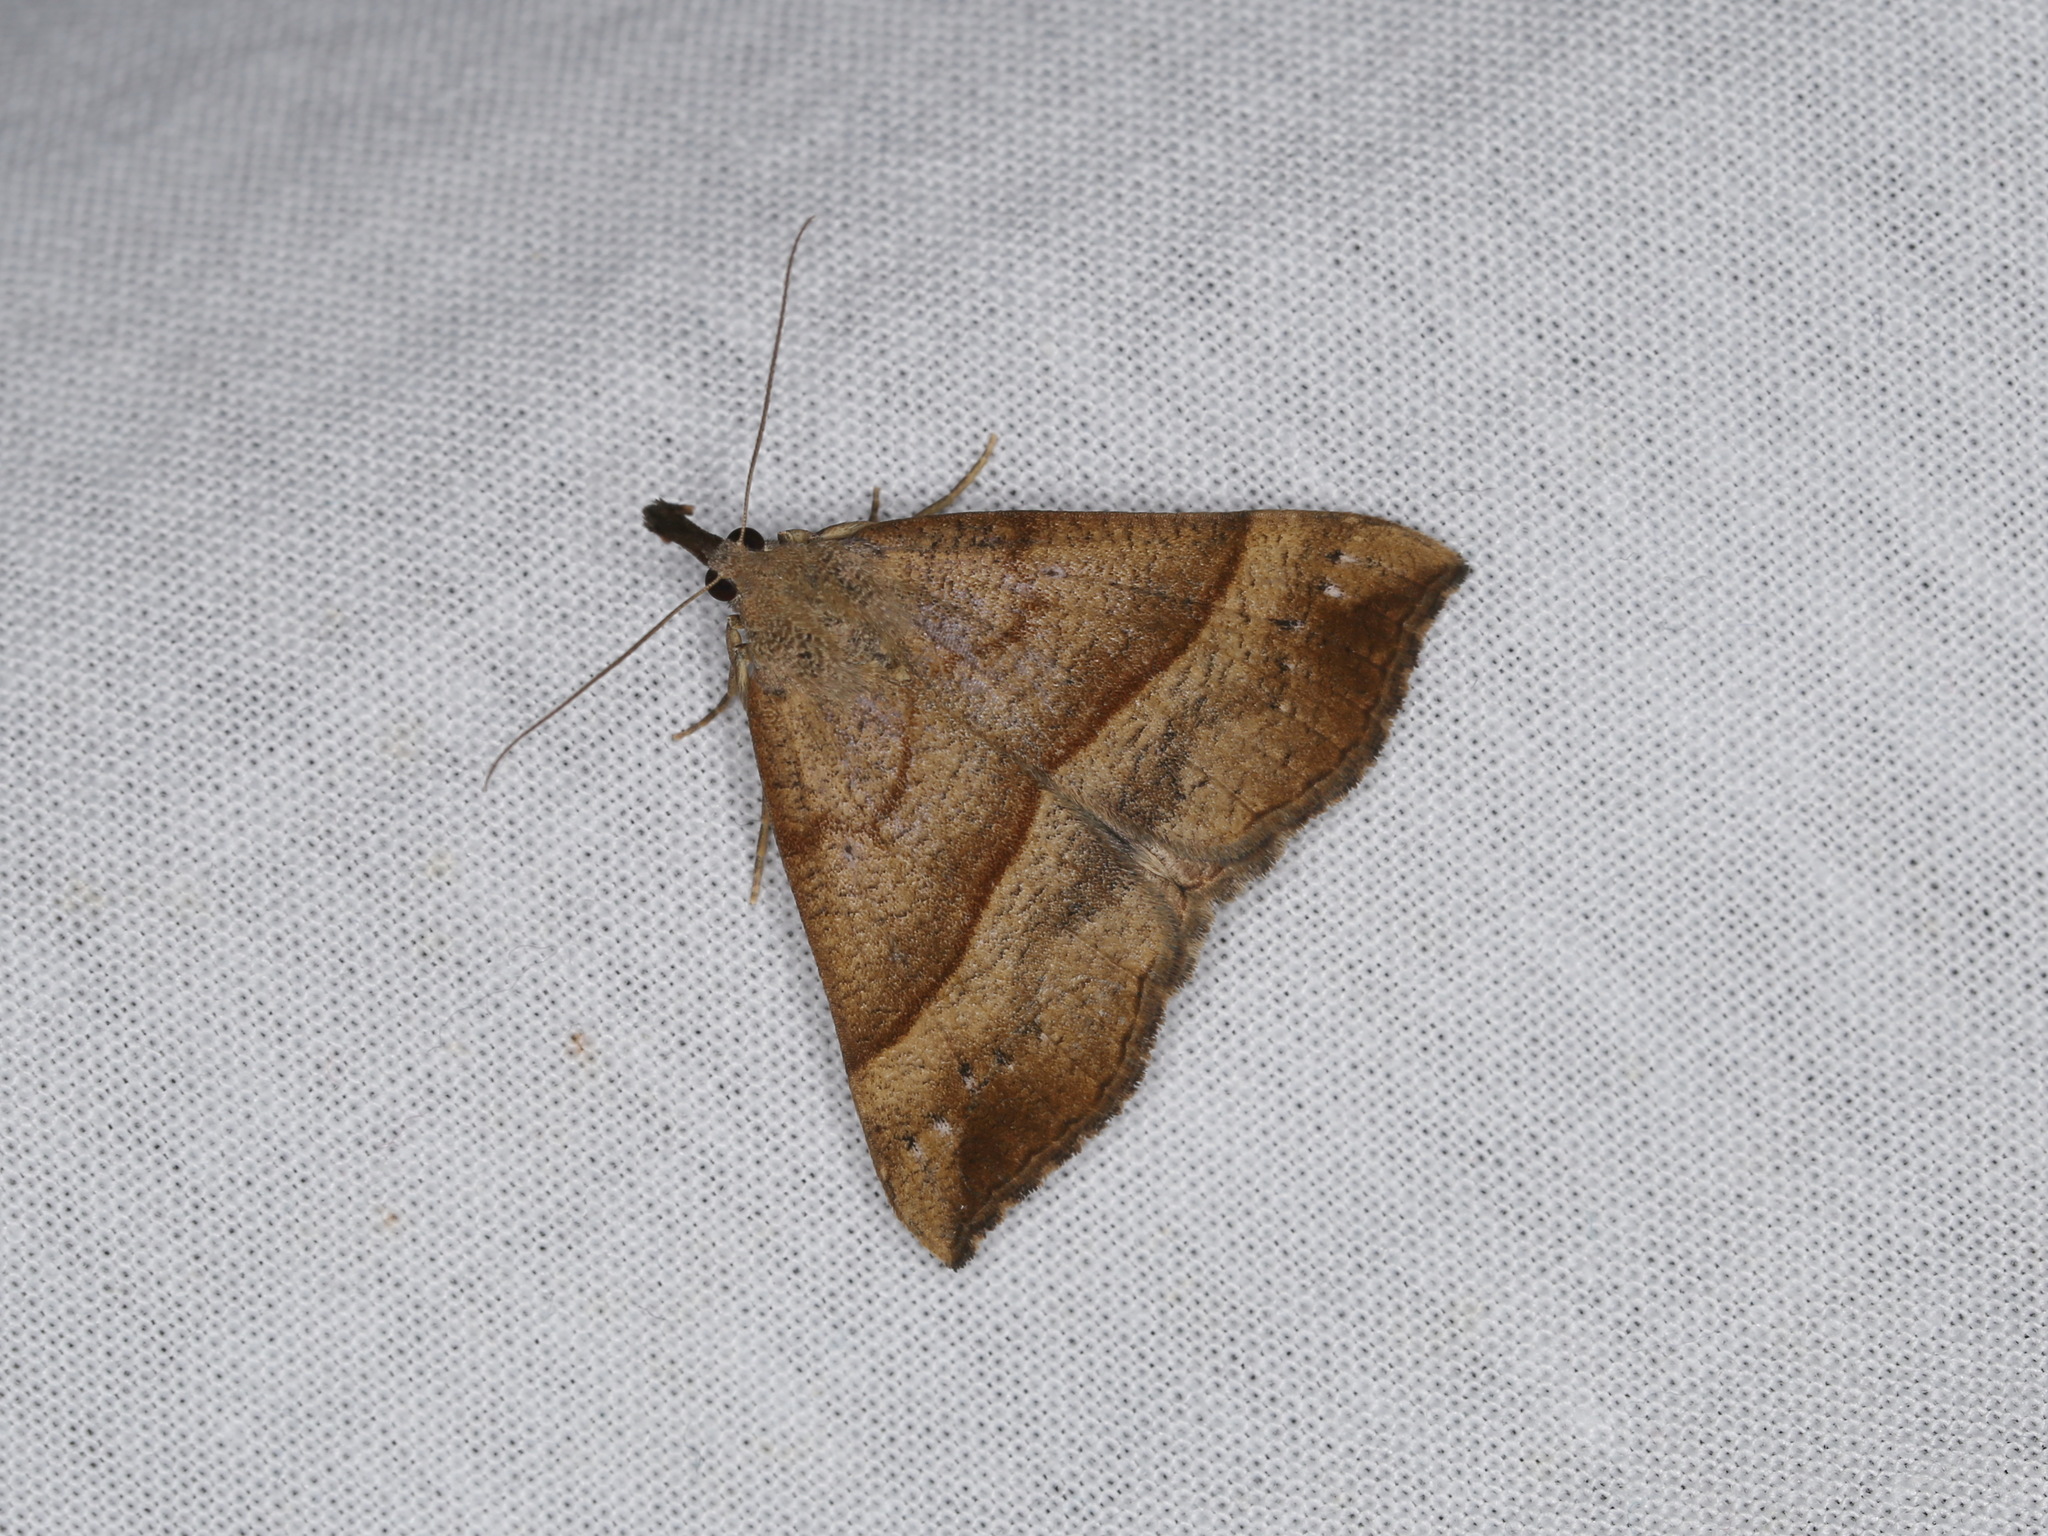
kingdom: Animalia
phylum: Arthropoda
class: Insecta
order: Lepidoptera
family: Erebidae
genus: Hypena
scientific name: Hypena proboscidalis
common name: Snout
